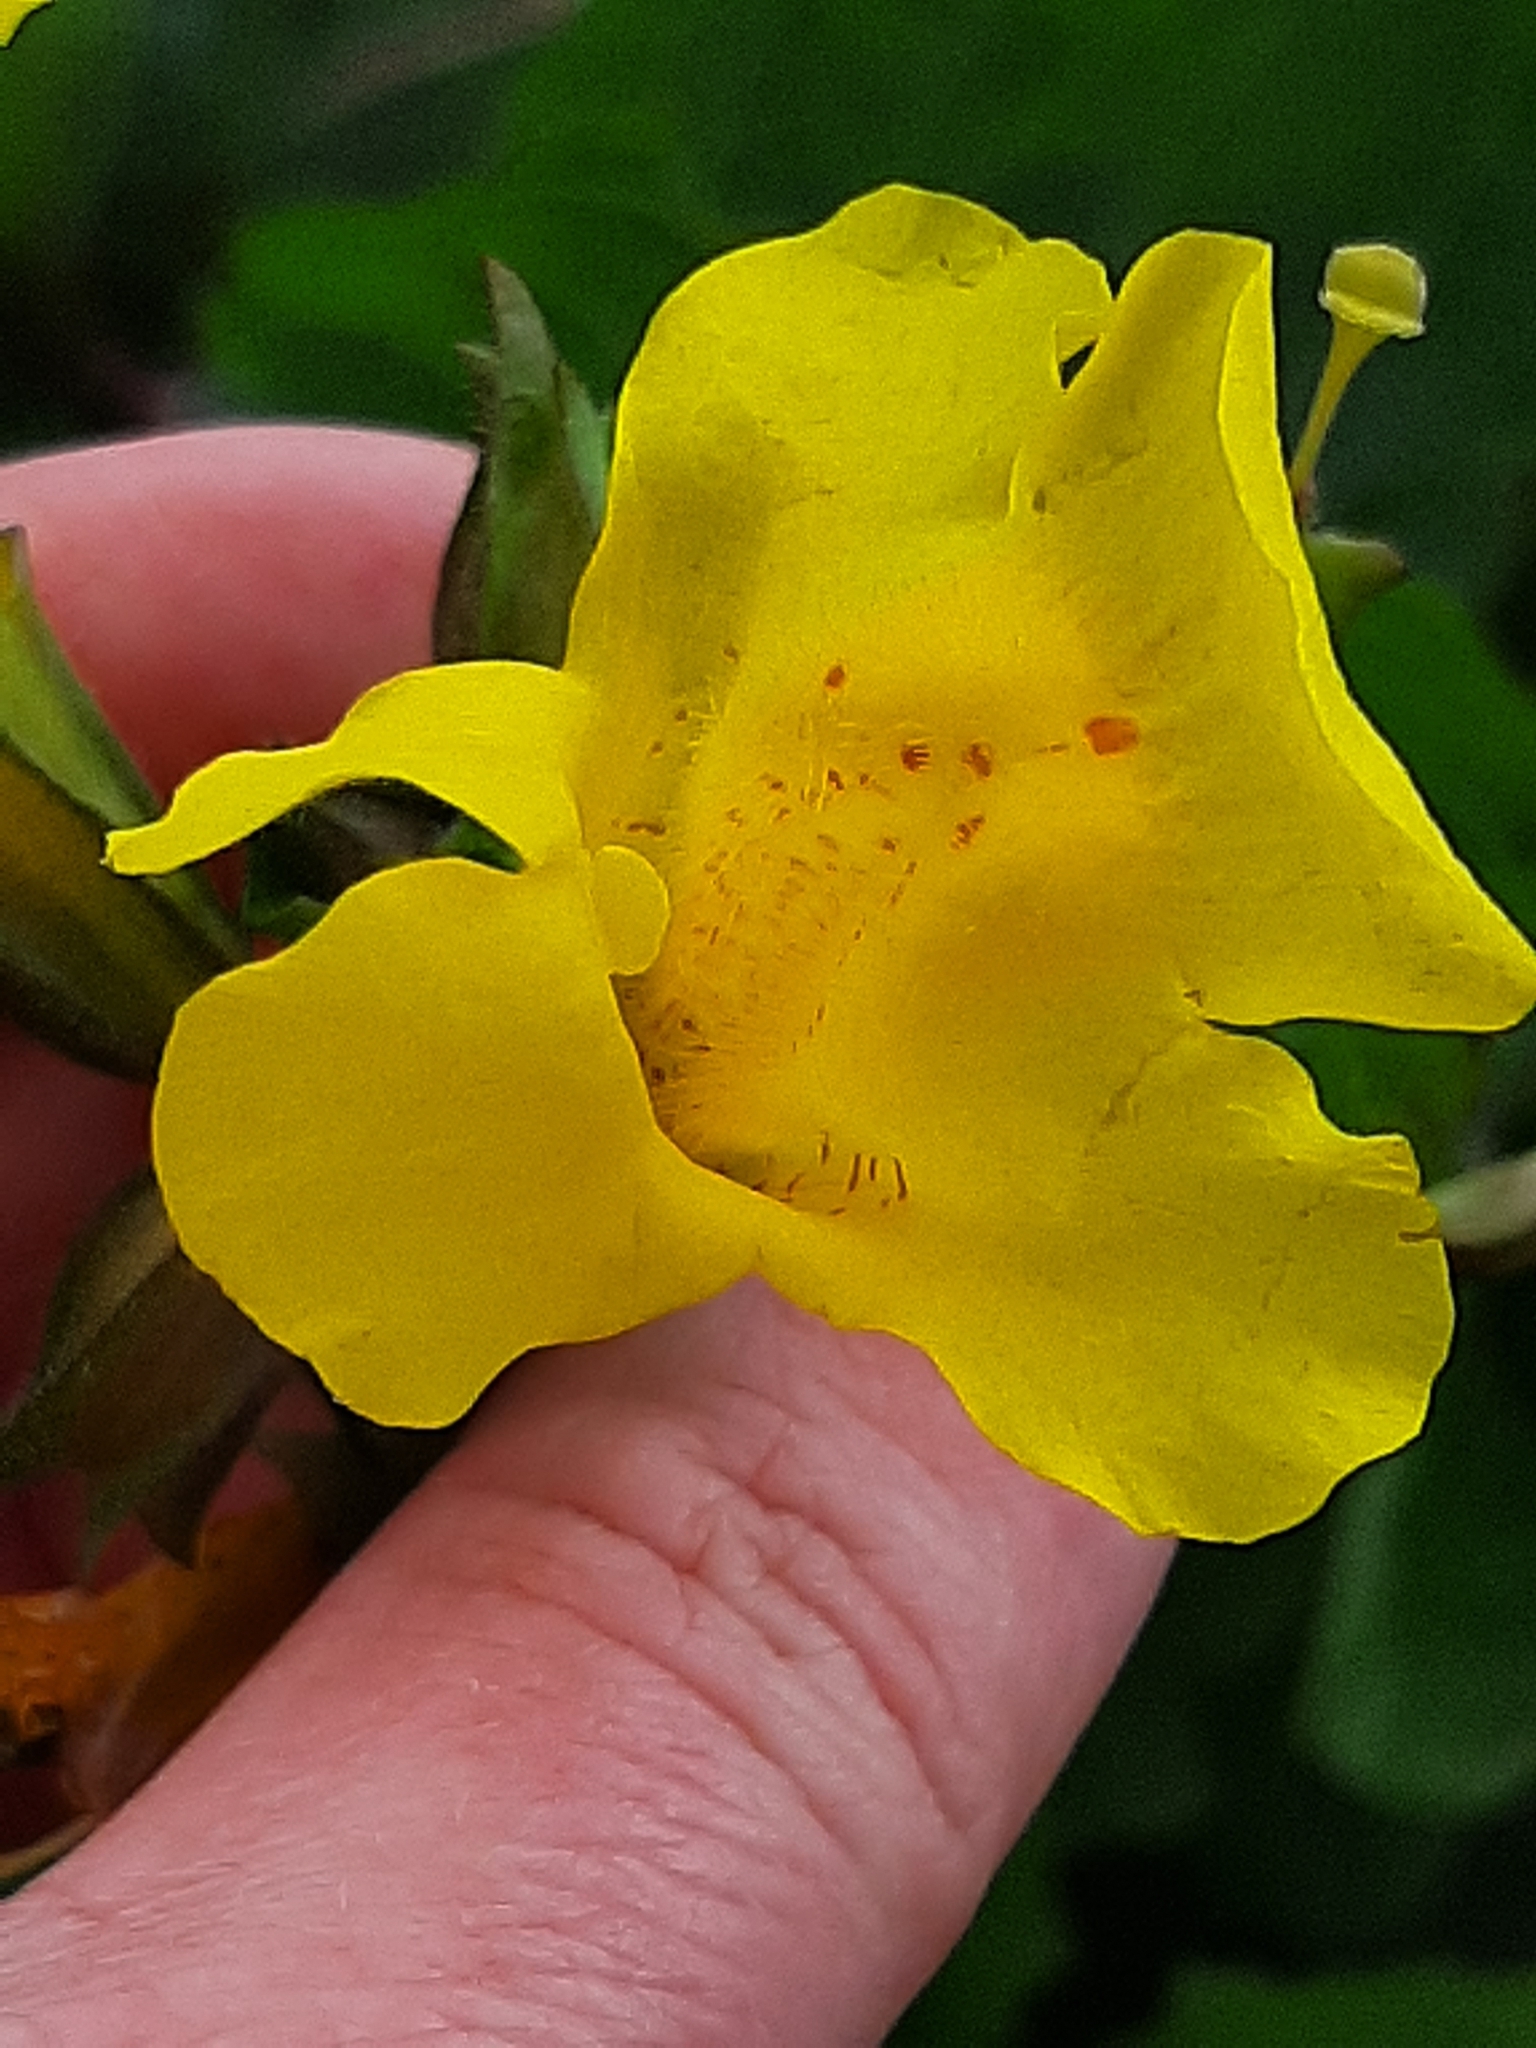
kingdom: Plantae
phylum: Tracheophyta
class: Magnoliopsida
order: Lamiales
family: Phrymaceae
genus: Erythranthe
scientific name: Erythranthe guttata
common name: Monkeyflower
